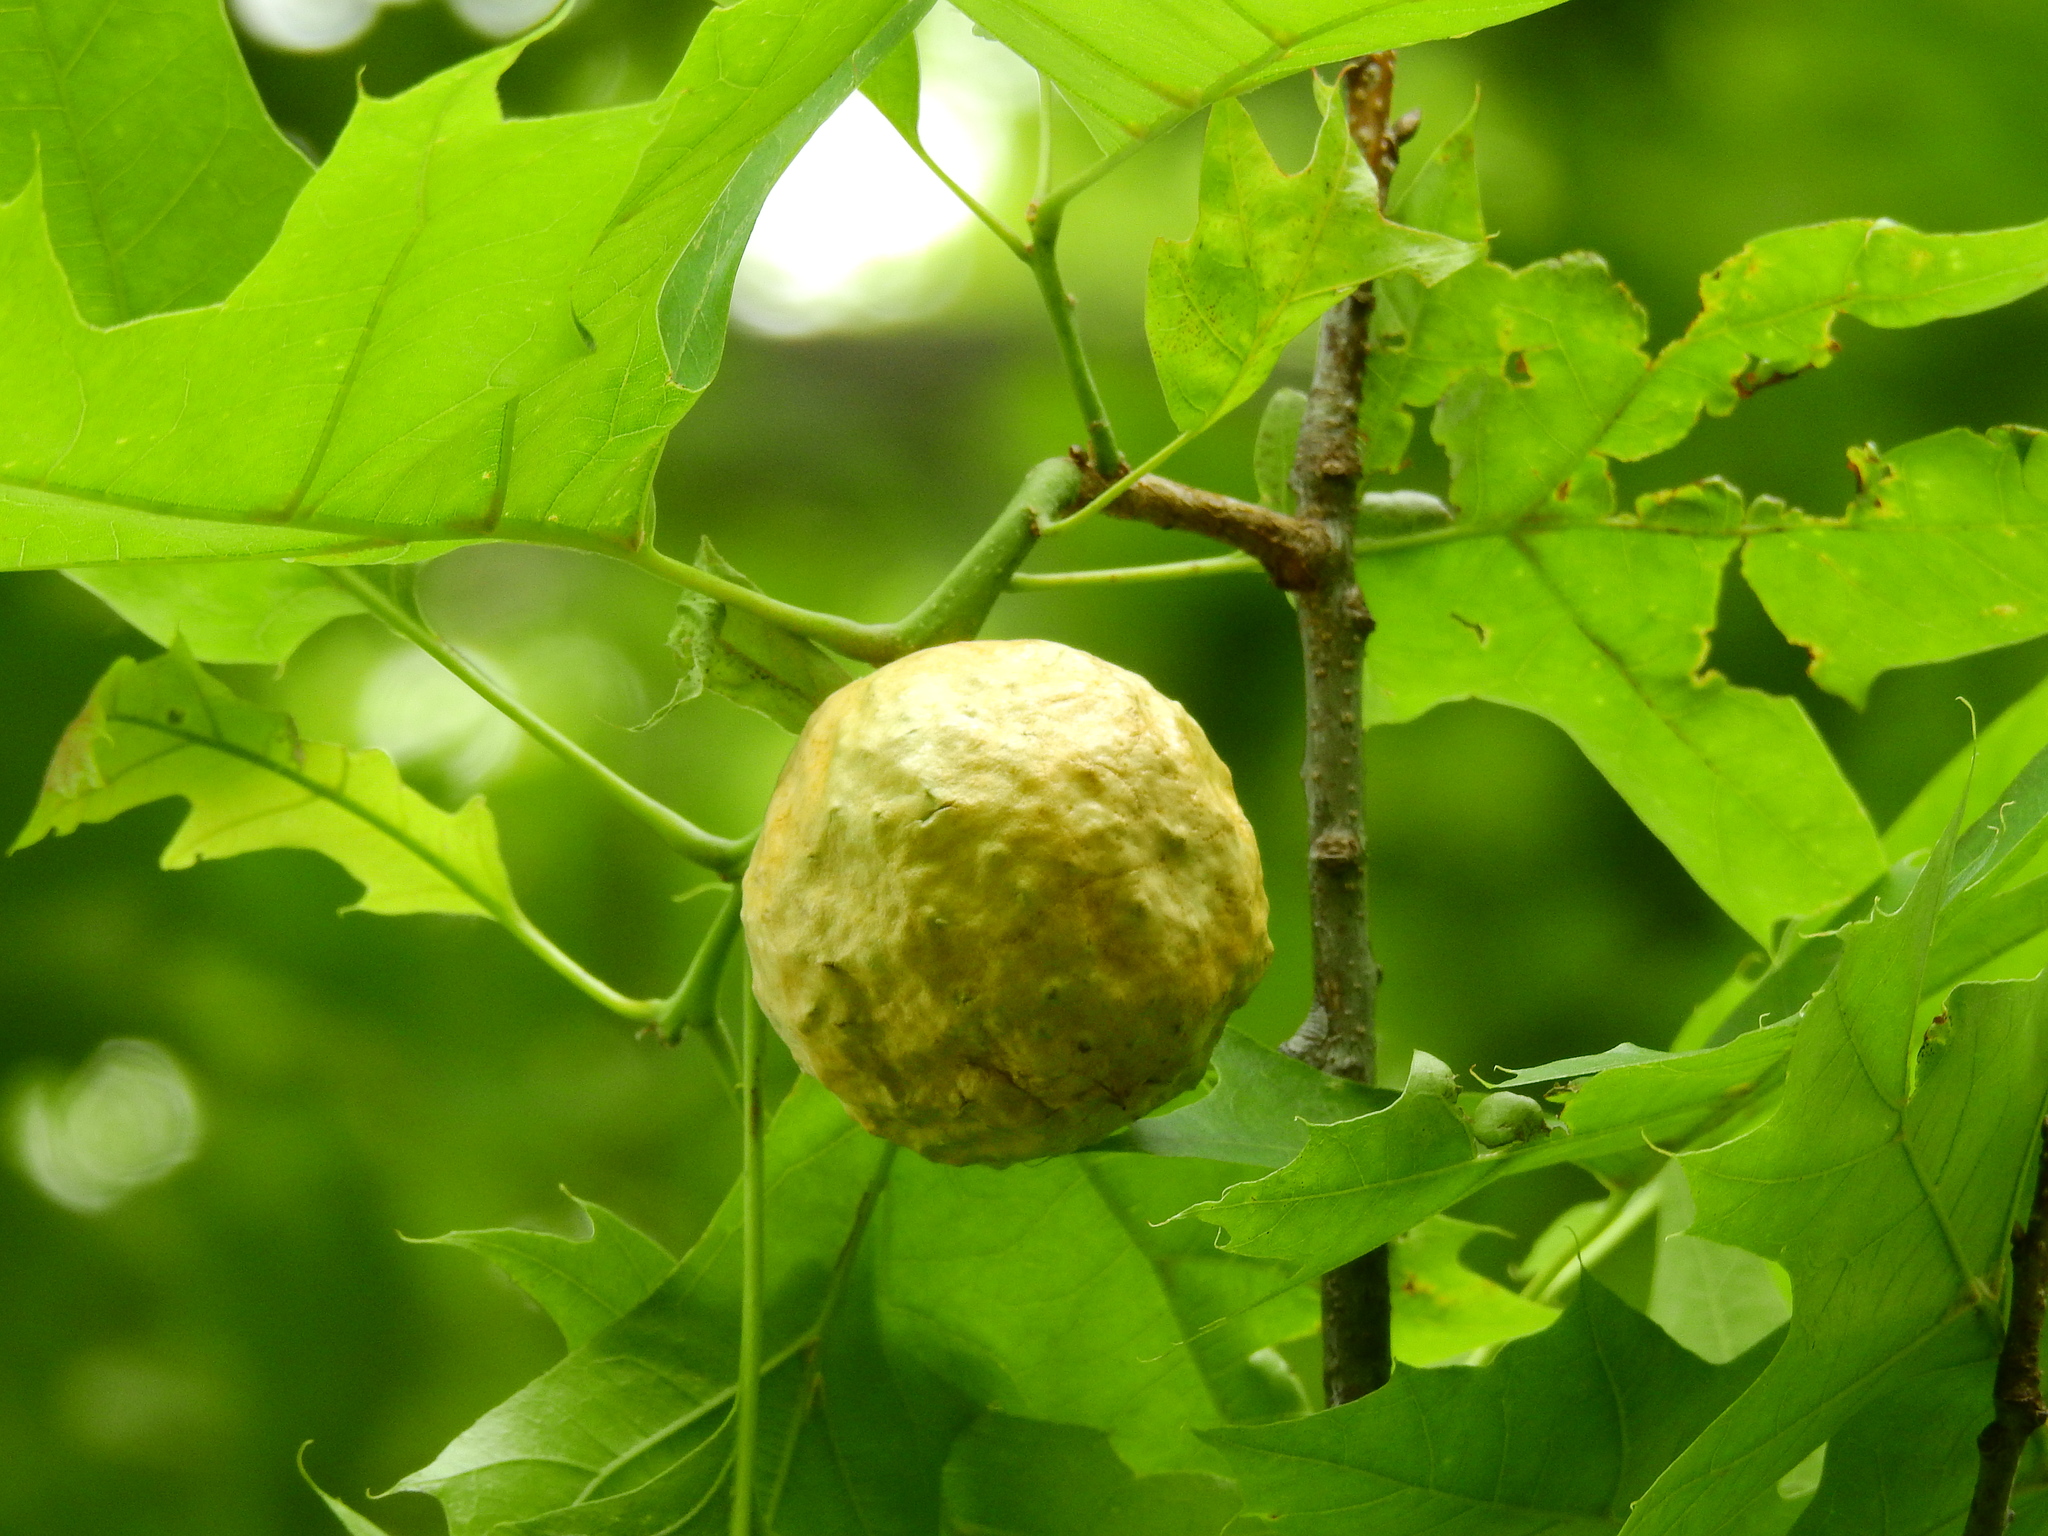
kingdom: Animalia
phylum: Arthropoda
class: Insecta
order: Hymenoptera
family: Cynipidae
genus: Amphibolips
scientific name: Amphibolips
